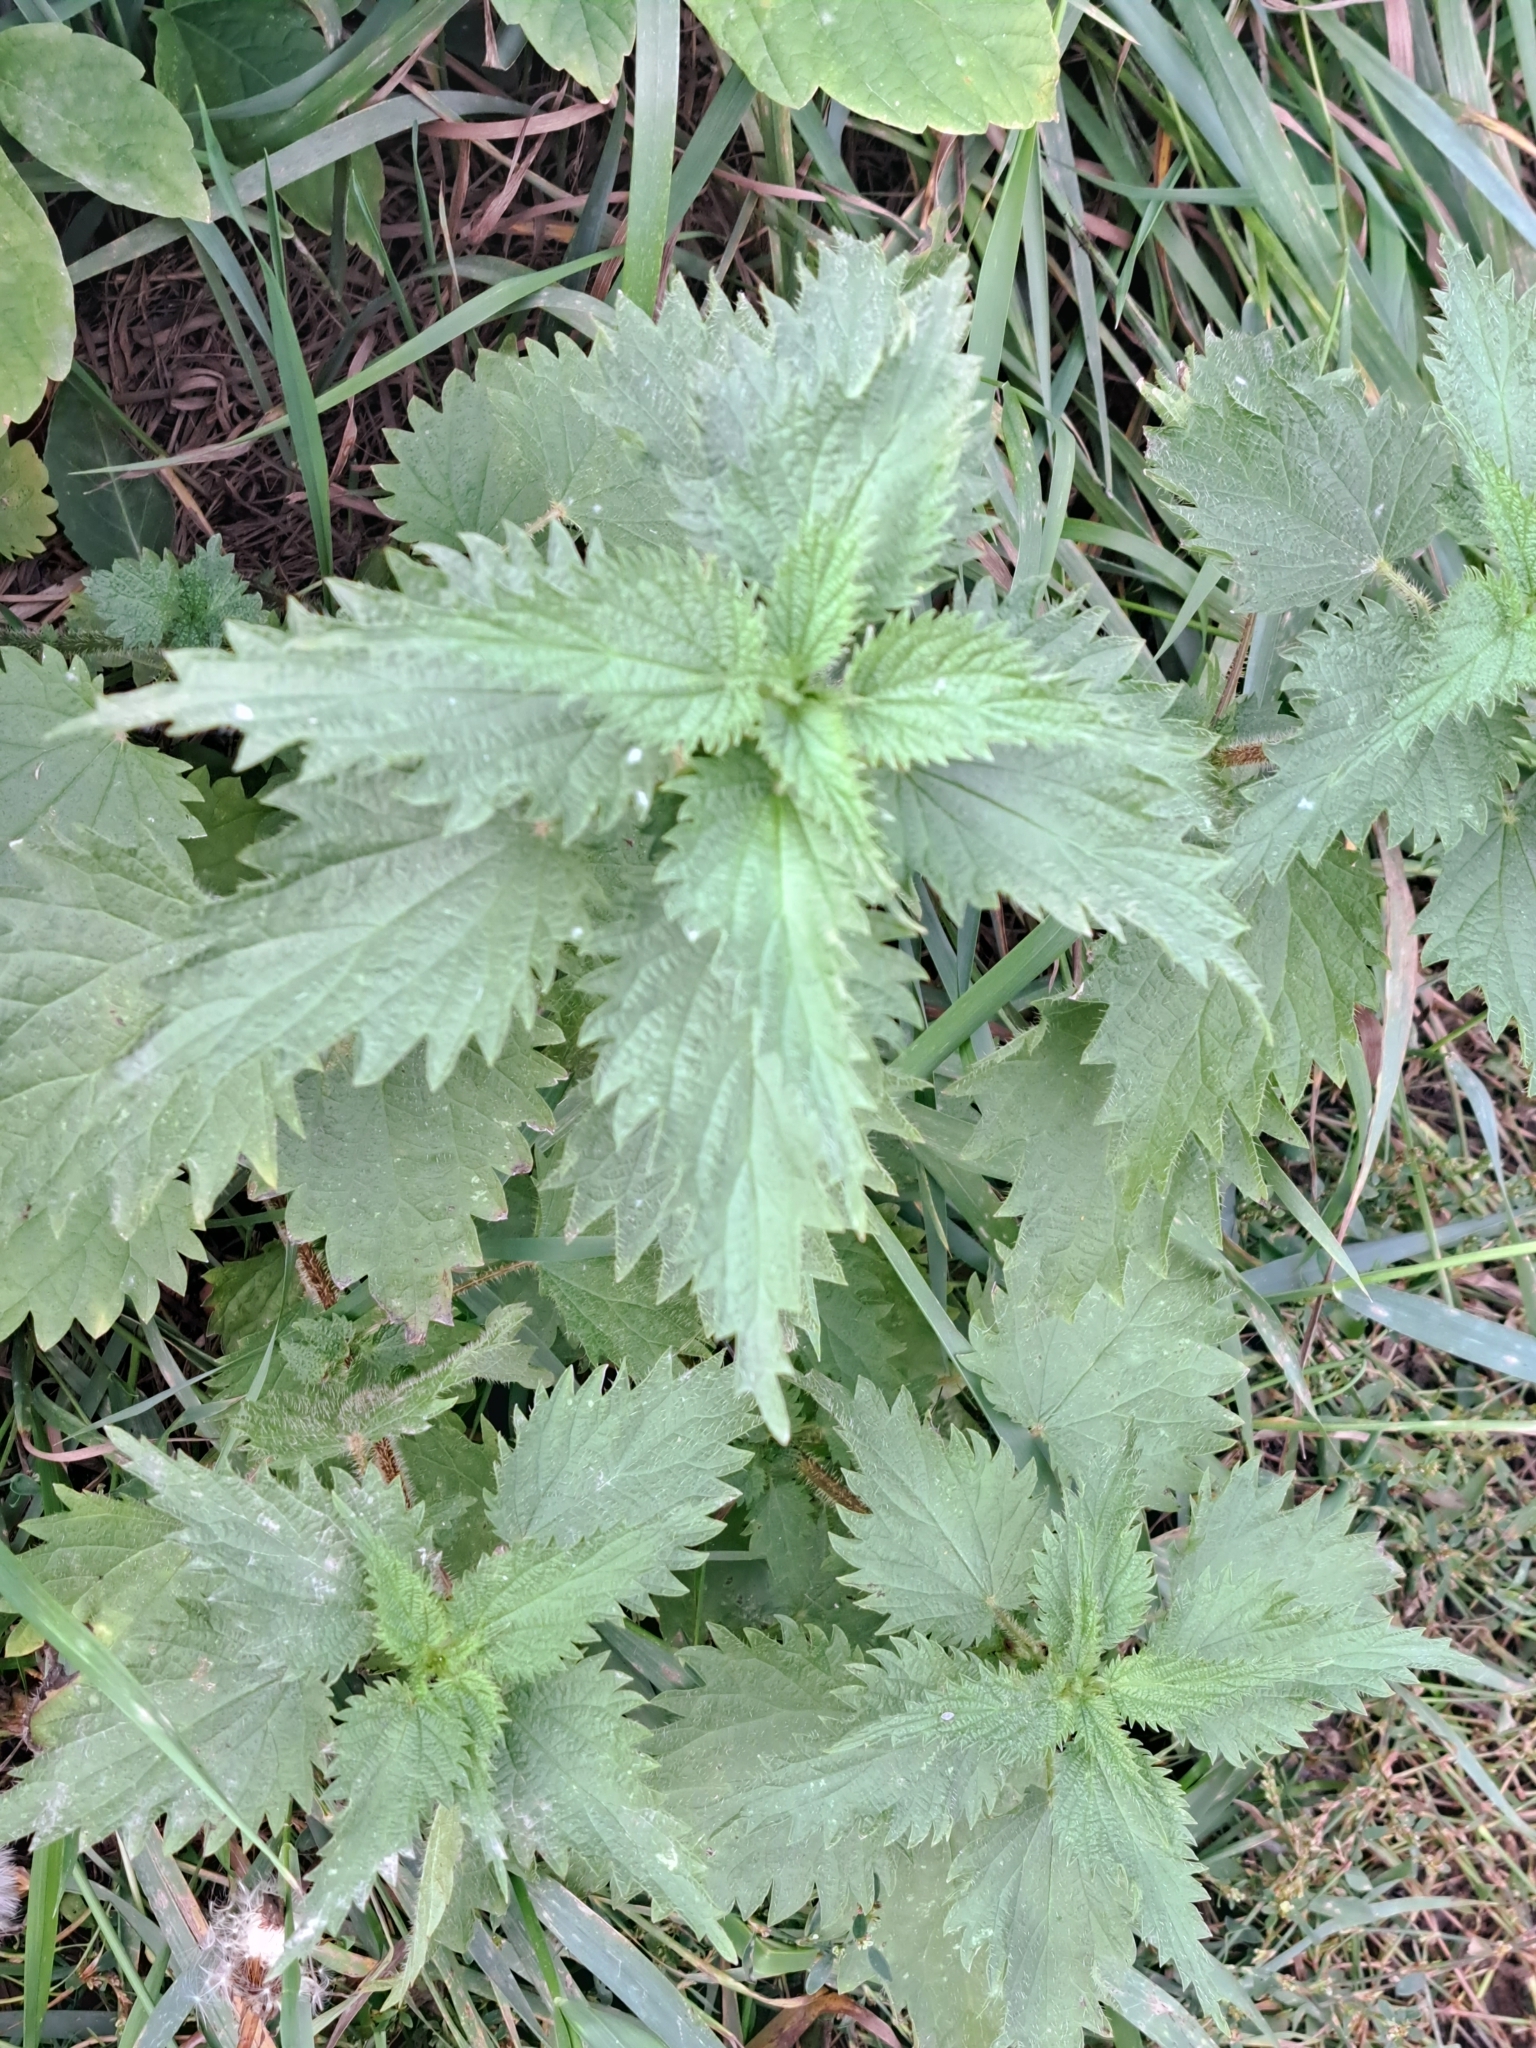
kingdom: Plantae
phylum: Tracheophyta
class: Magnoliopsida
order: Rosales
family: Urticaceae
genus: Urtica
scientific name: Urtica dioica
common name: Common nettle
